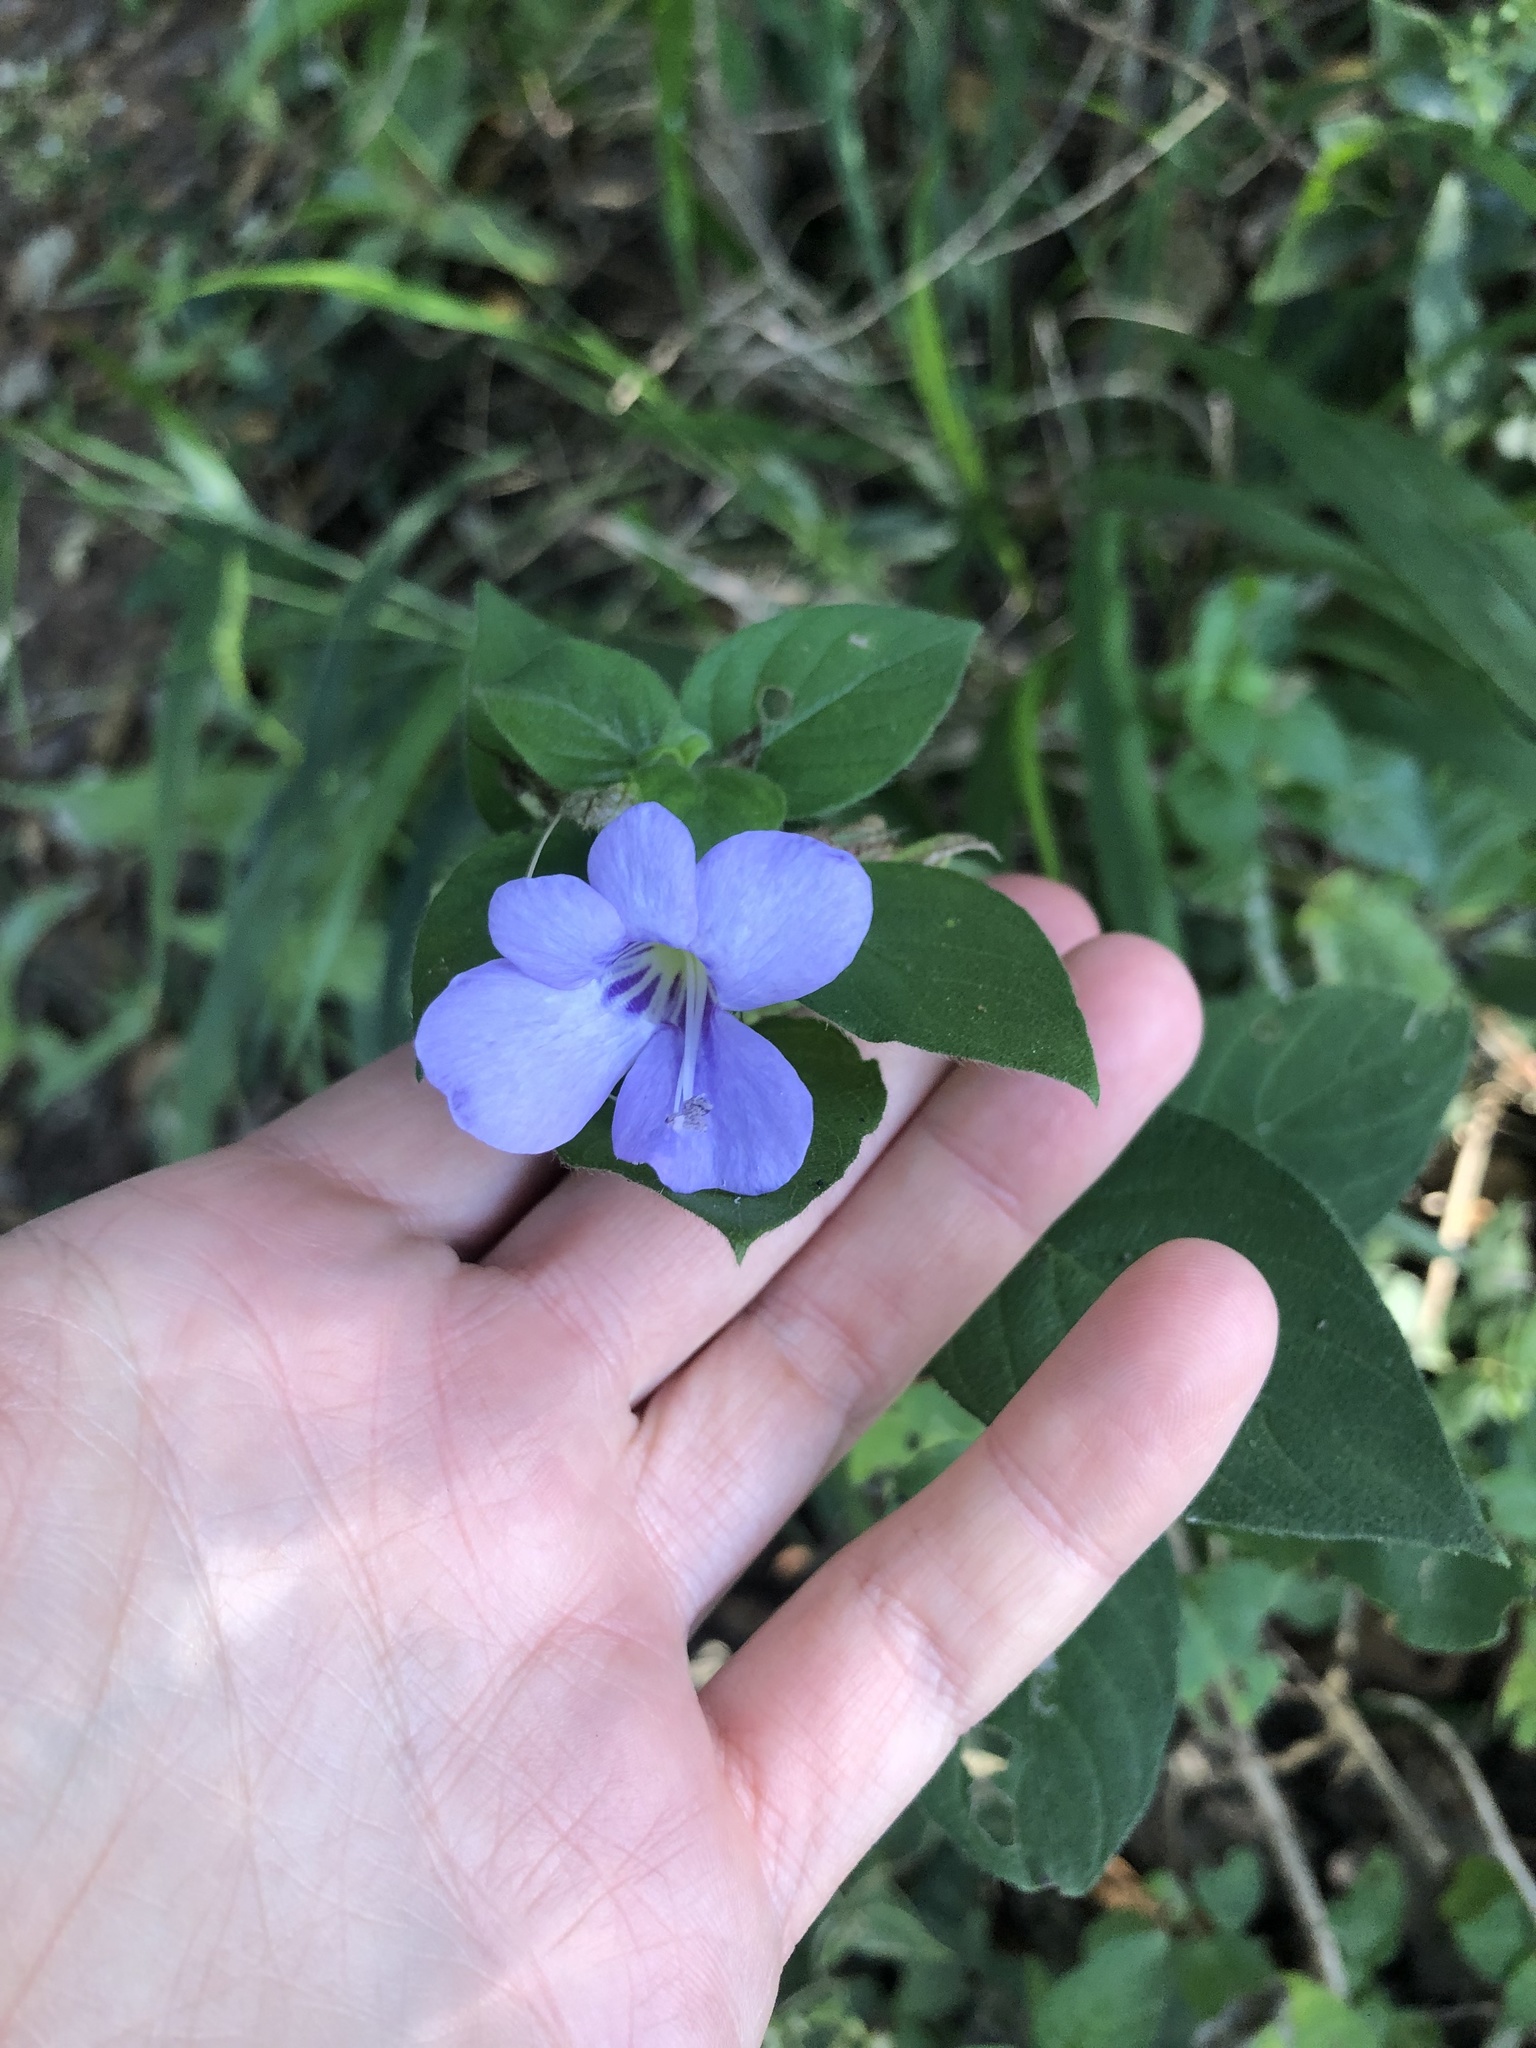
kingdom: Plantae
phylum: Tracheophyta
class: Magnoliopsida
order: Lamiales
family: Acanthaceae
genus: Barleria
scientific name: Barleria obtusa
